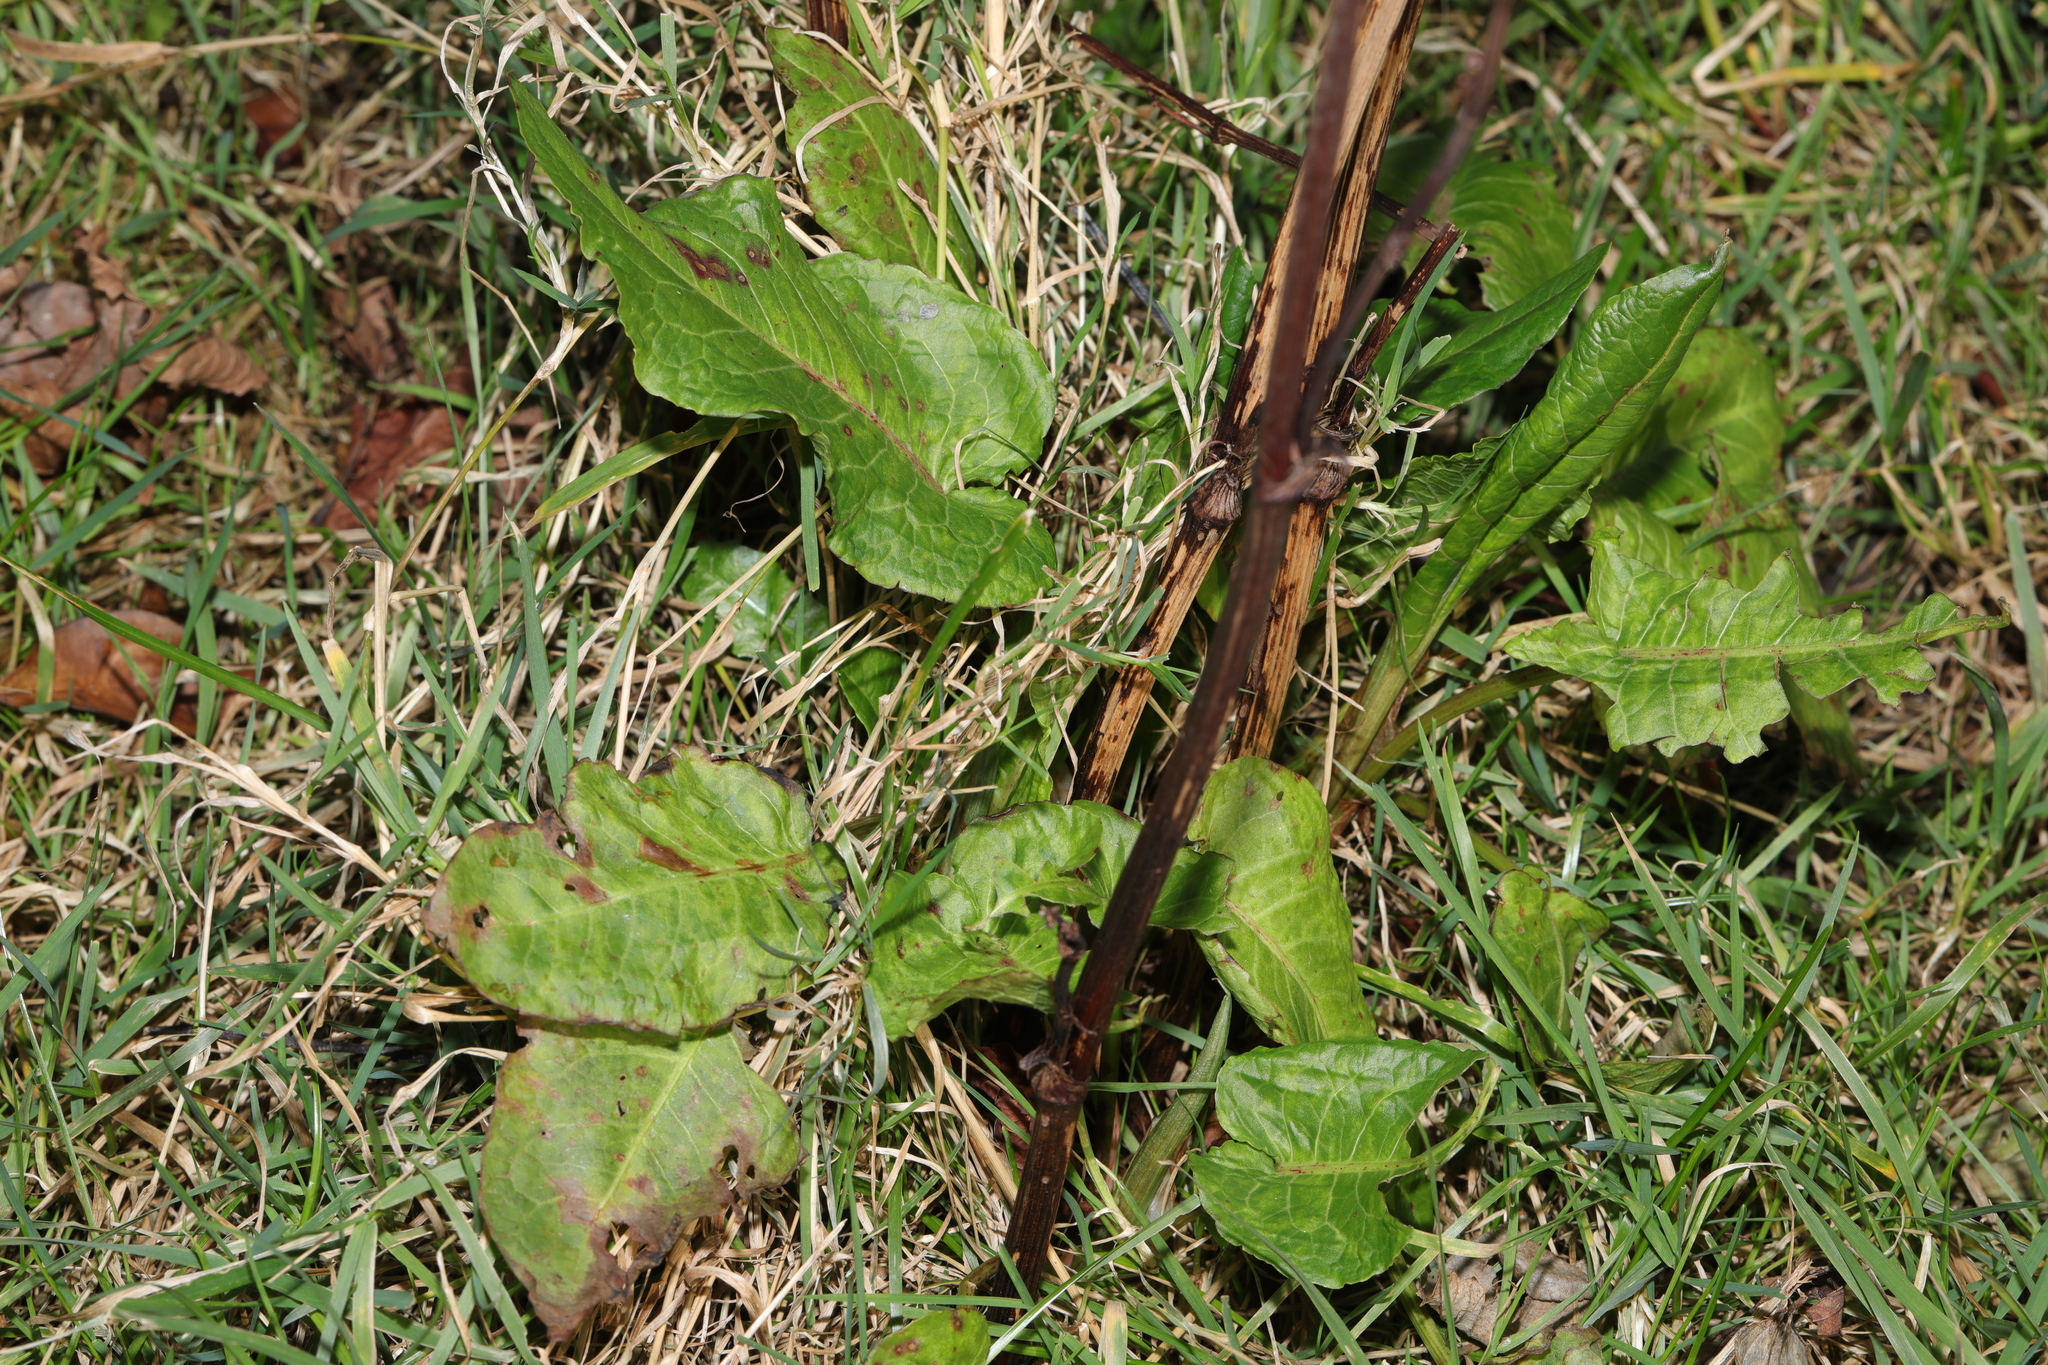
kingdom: Plantae
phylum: Tracheophyta
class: Magnoliopsida
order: Caryophyllales
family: Polygonaceae
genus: Rumex
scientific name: Rumex obtusifolius
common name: Bitter dock
